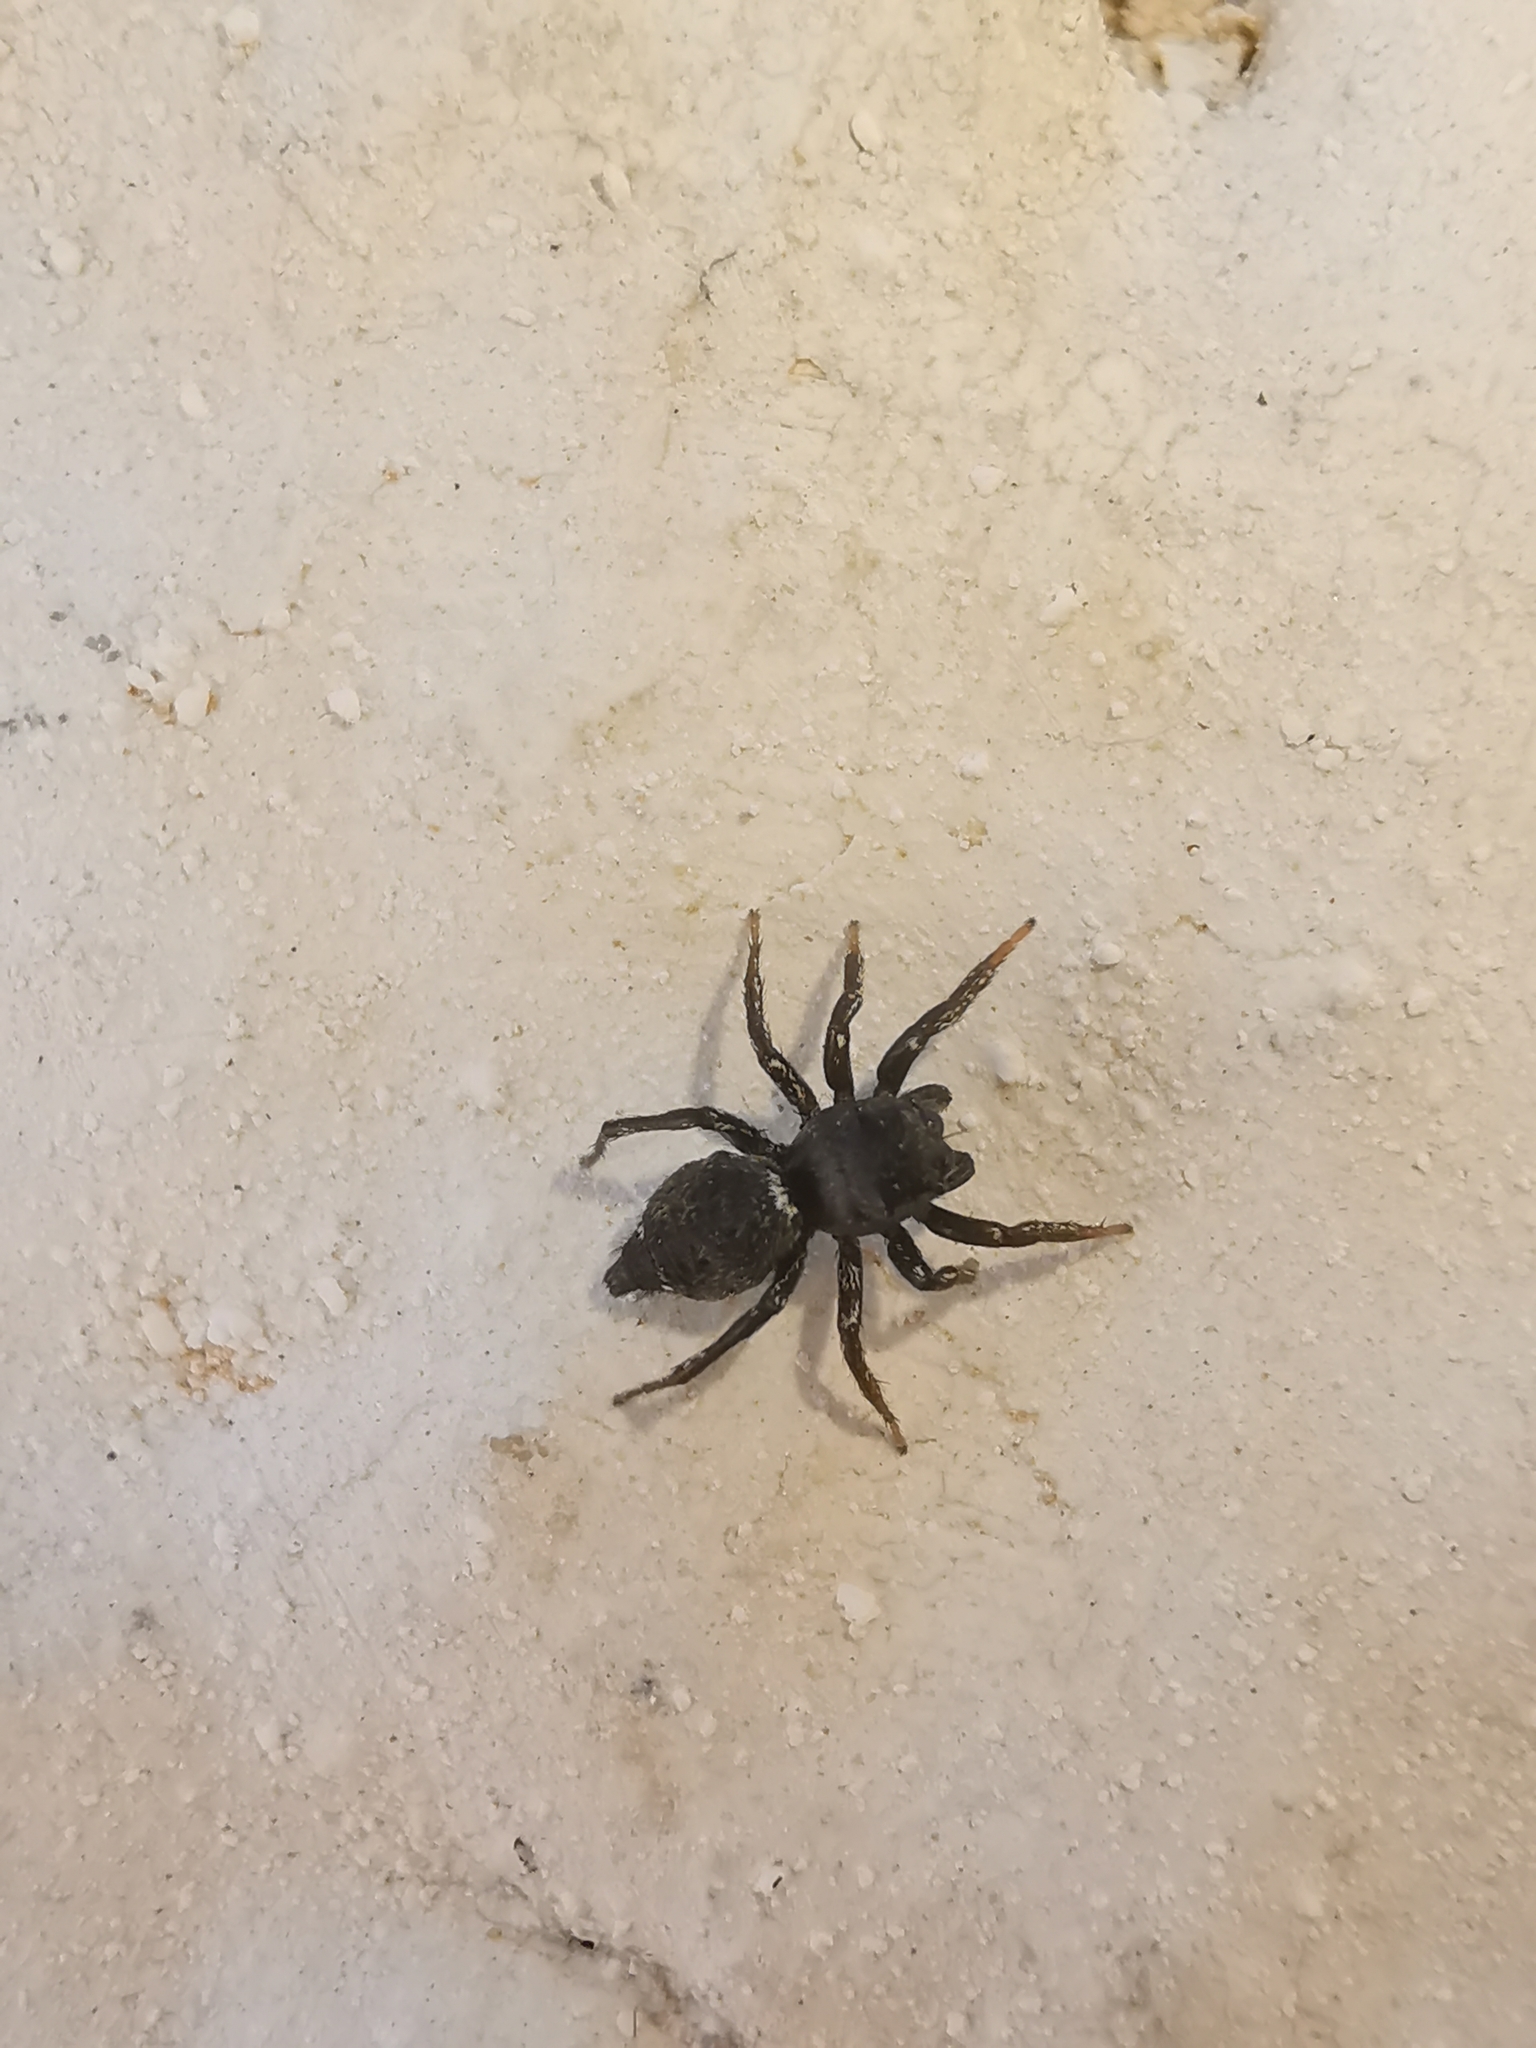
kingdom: Animalia
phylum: Arthropoda
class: Arachnida
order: Araneae
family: Salticidae
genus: Heliophanus
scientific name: Heliophanus kochii
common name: Sun jumping spider
